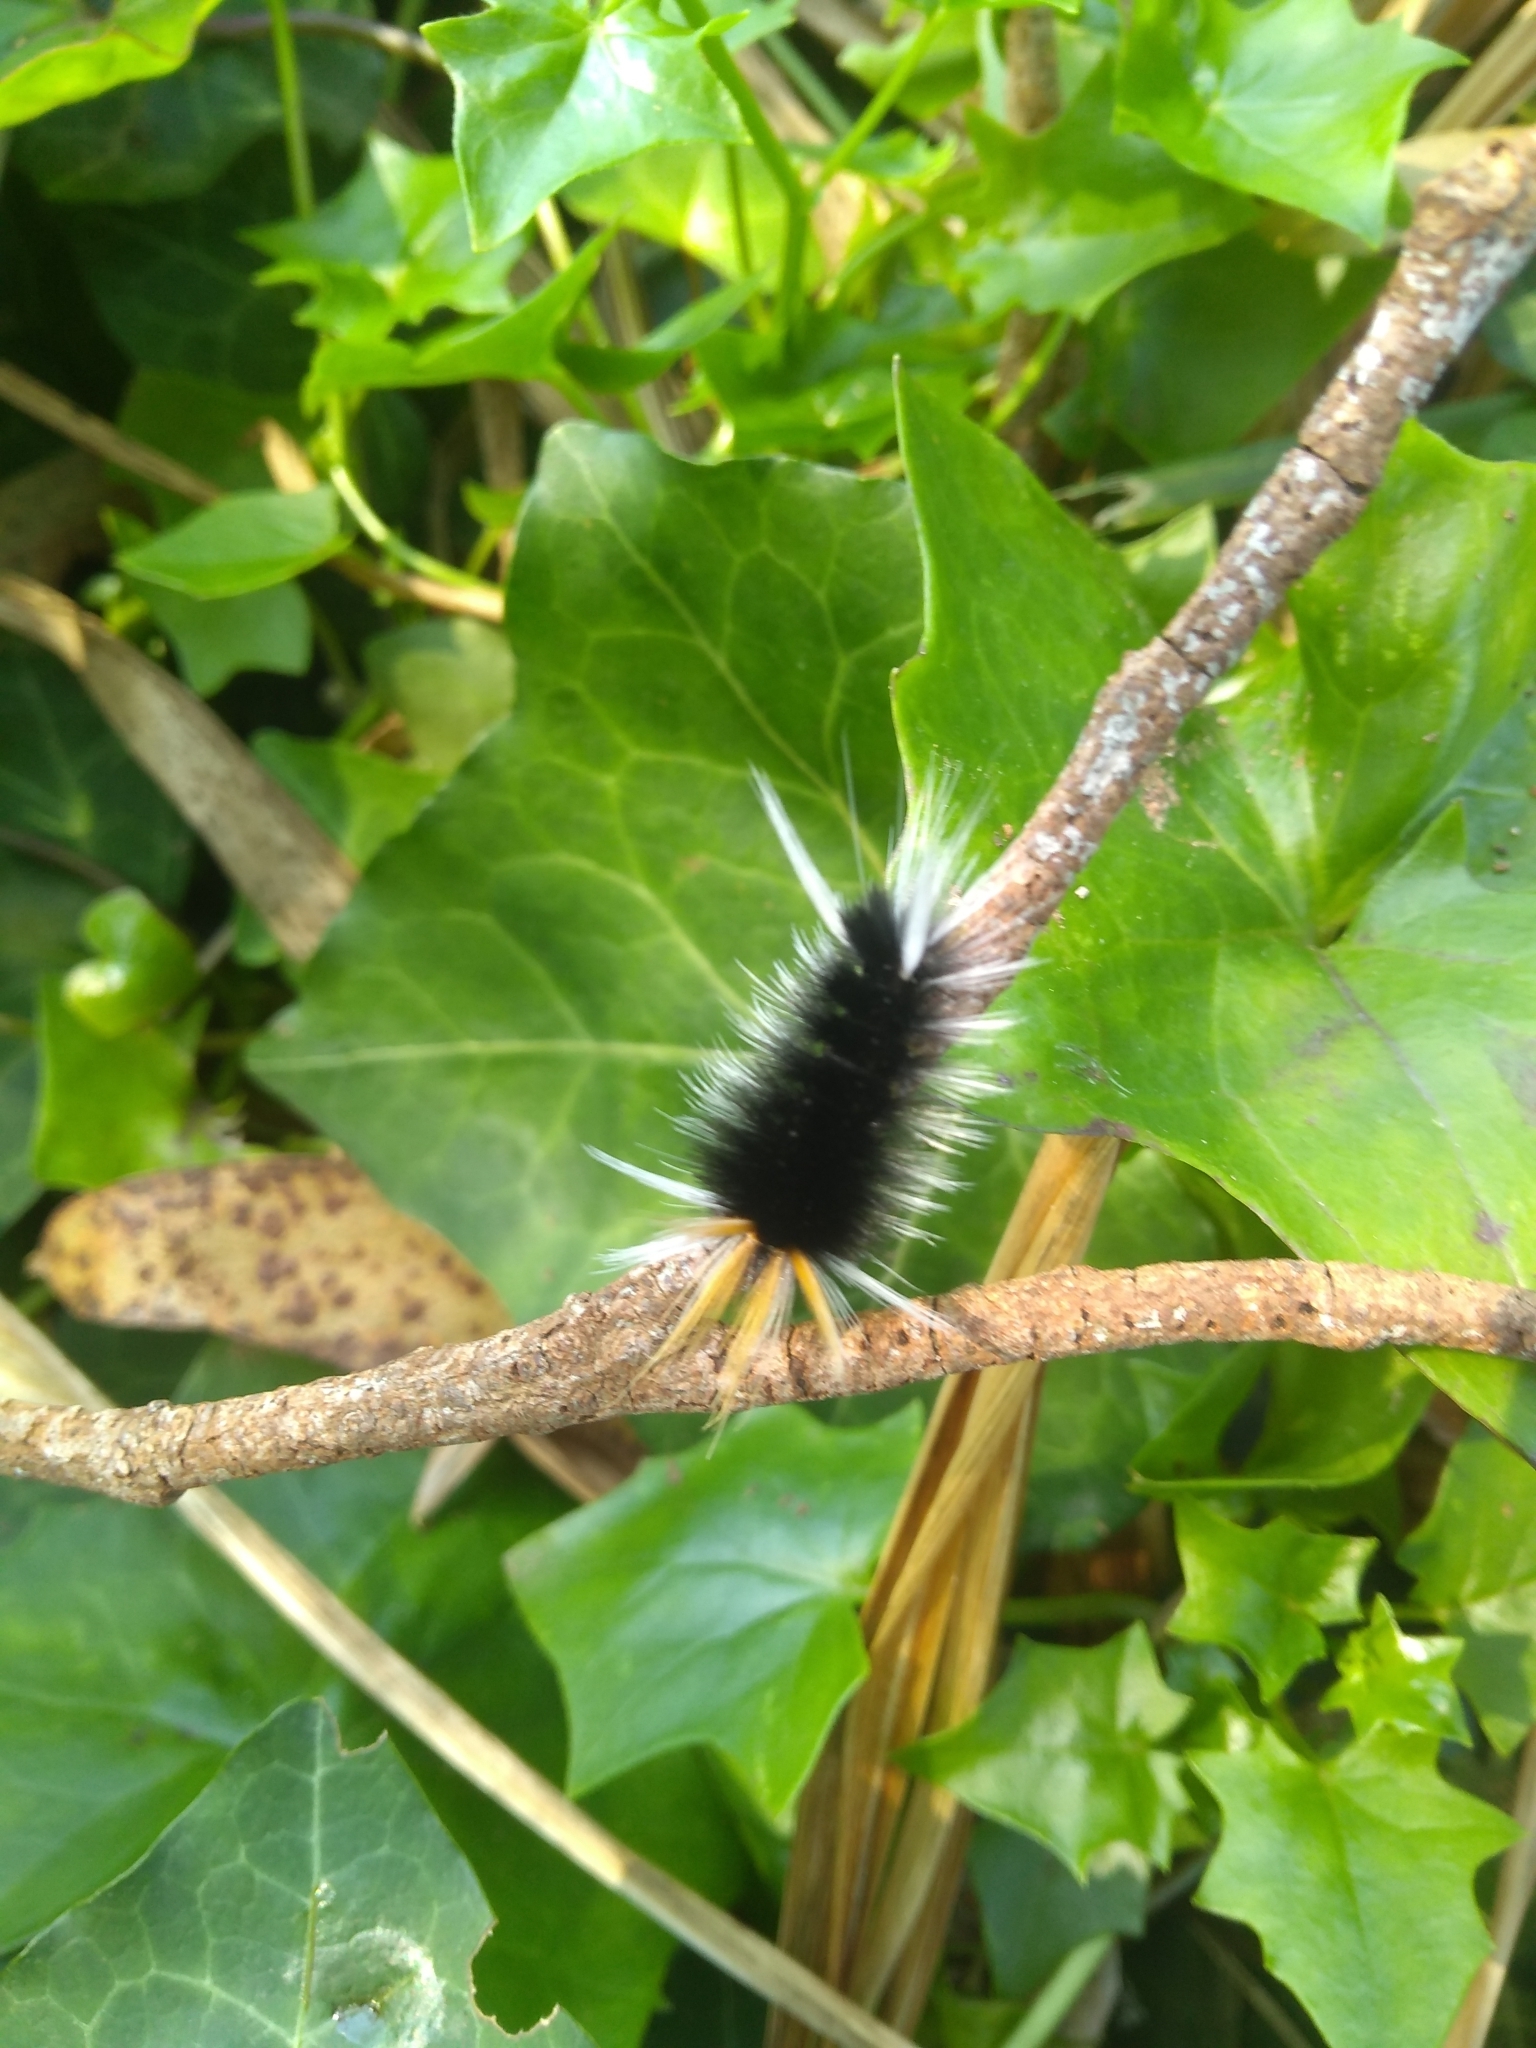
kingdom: Animalia
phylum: Arthropoda
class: Insecta
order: Lepidoptera
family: Erebidae
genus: Halysidota
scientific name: Halysidota ruscheweyhi
